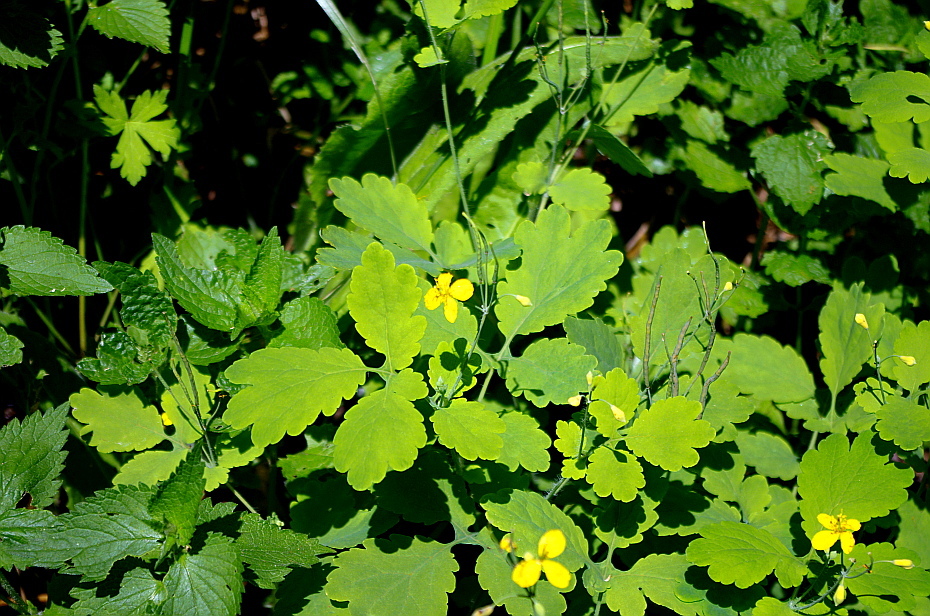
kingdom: Plantae
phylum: Tracheophyta
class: Magnoliopsida
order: Ranunculales
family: Papaveraceae
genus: Chelidonium
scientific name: Chelidonium majus
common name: Greater celandine
